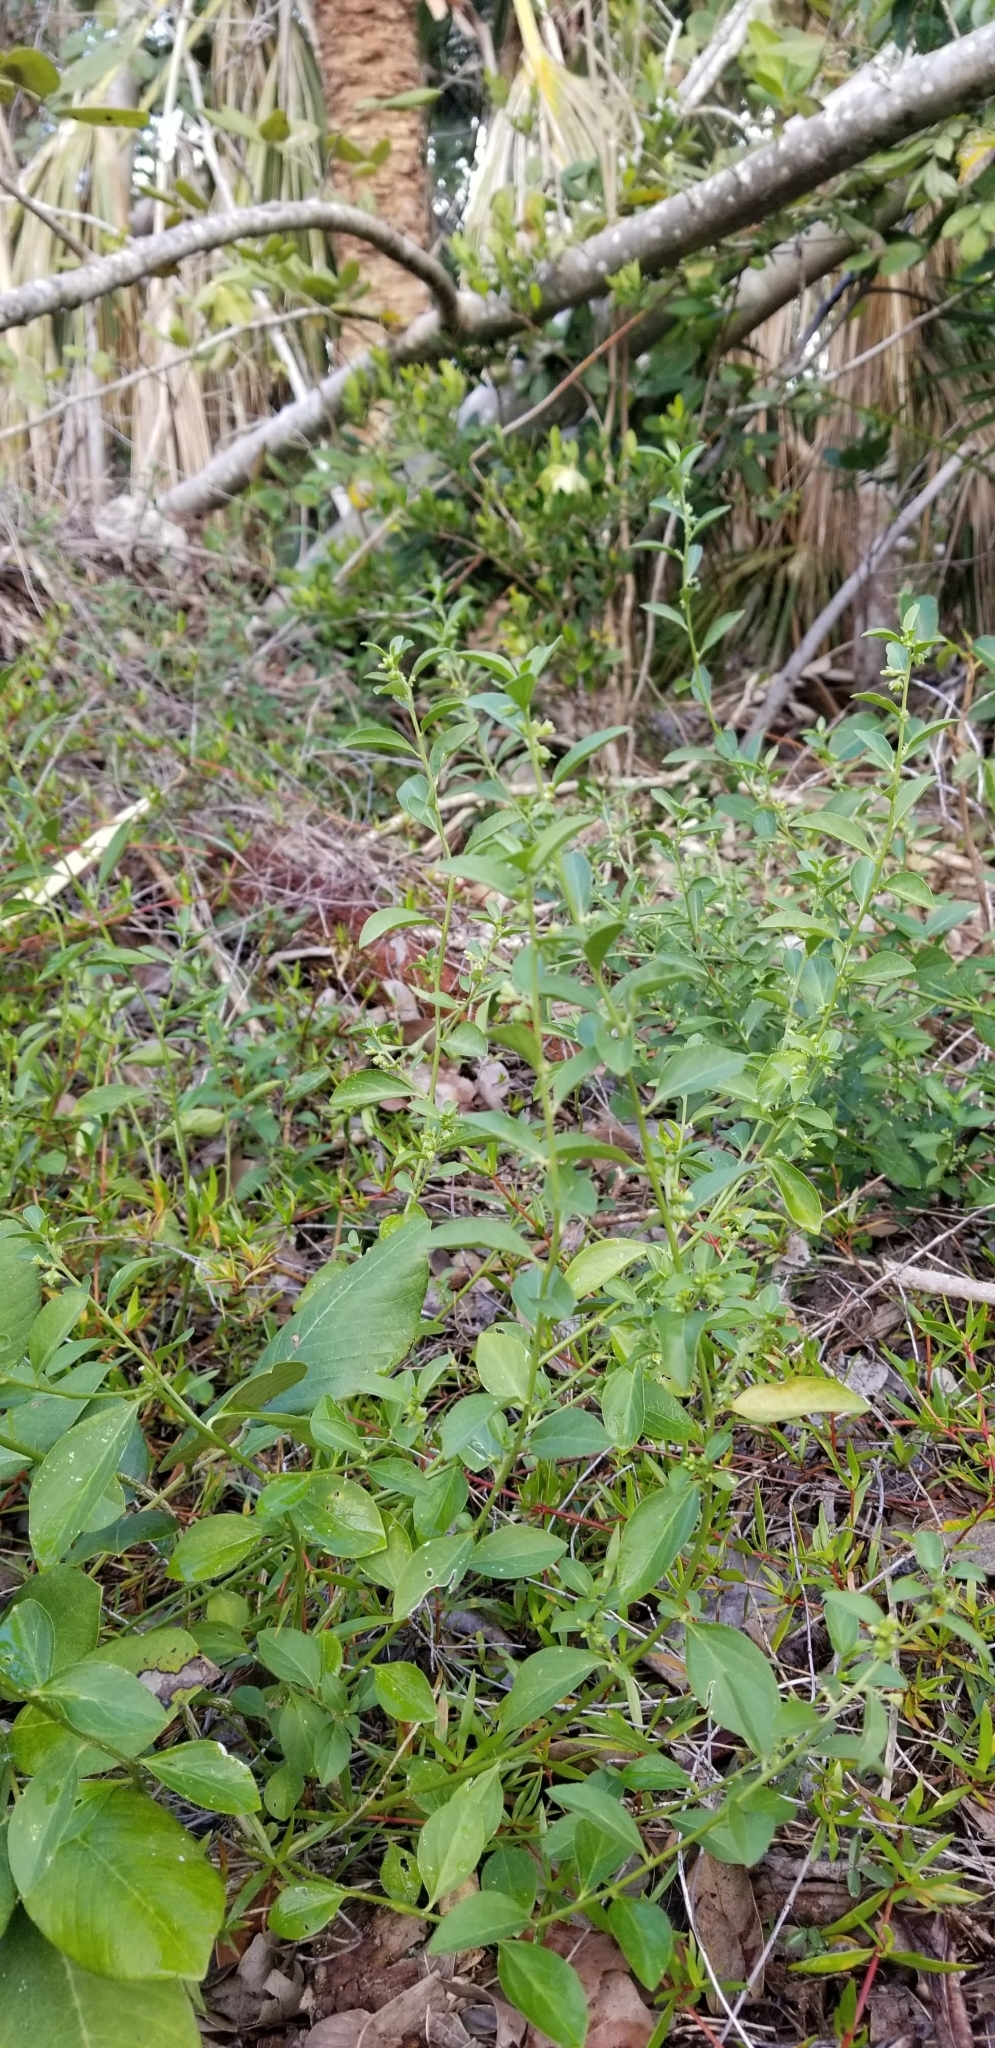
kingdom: Plantae
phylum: Tracheophyta
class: Magnoliopsida
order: Malpighiales
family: Euphorbiaceae
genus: Ditaxis
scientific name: Ditaxis argothamnoides
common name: Blodgett's silverbush
